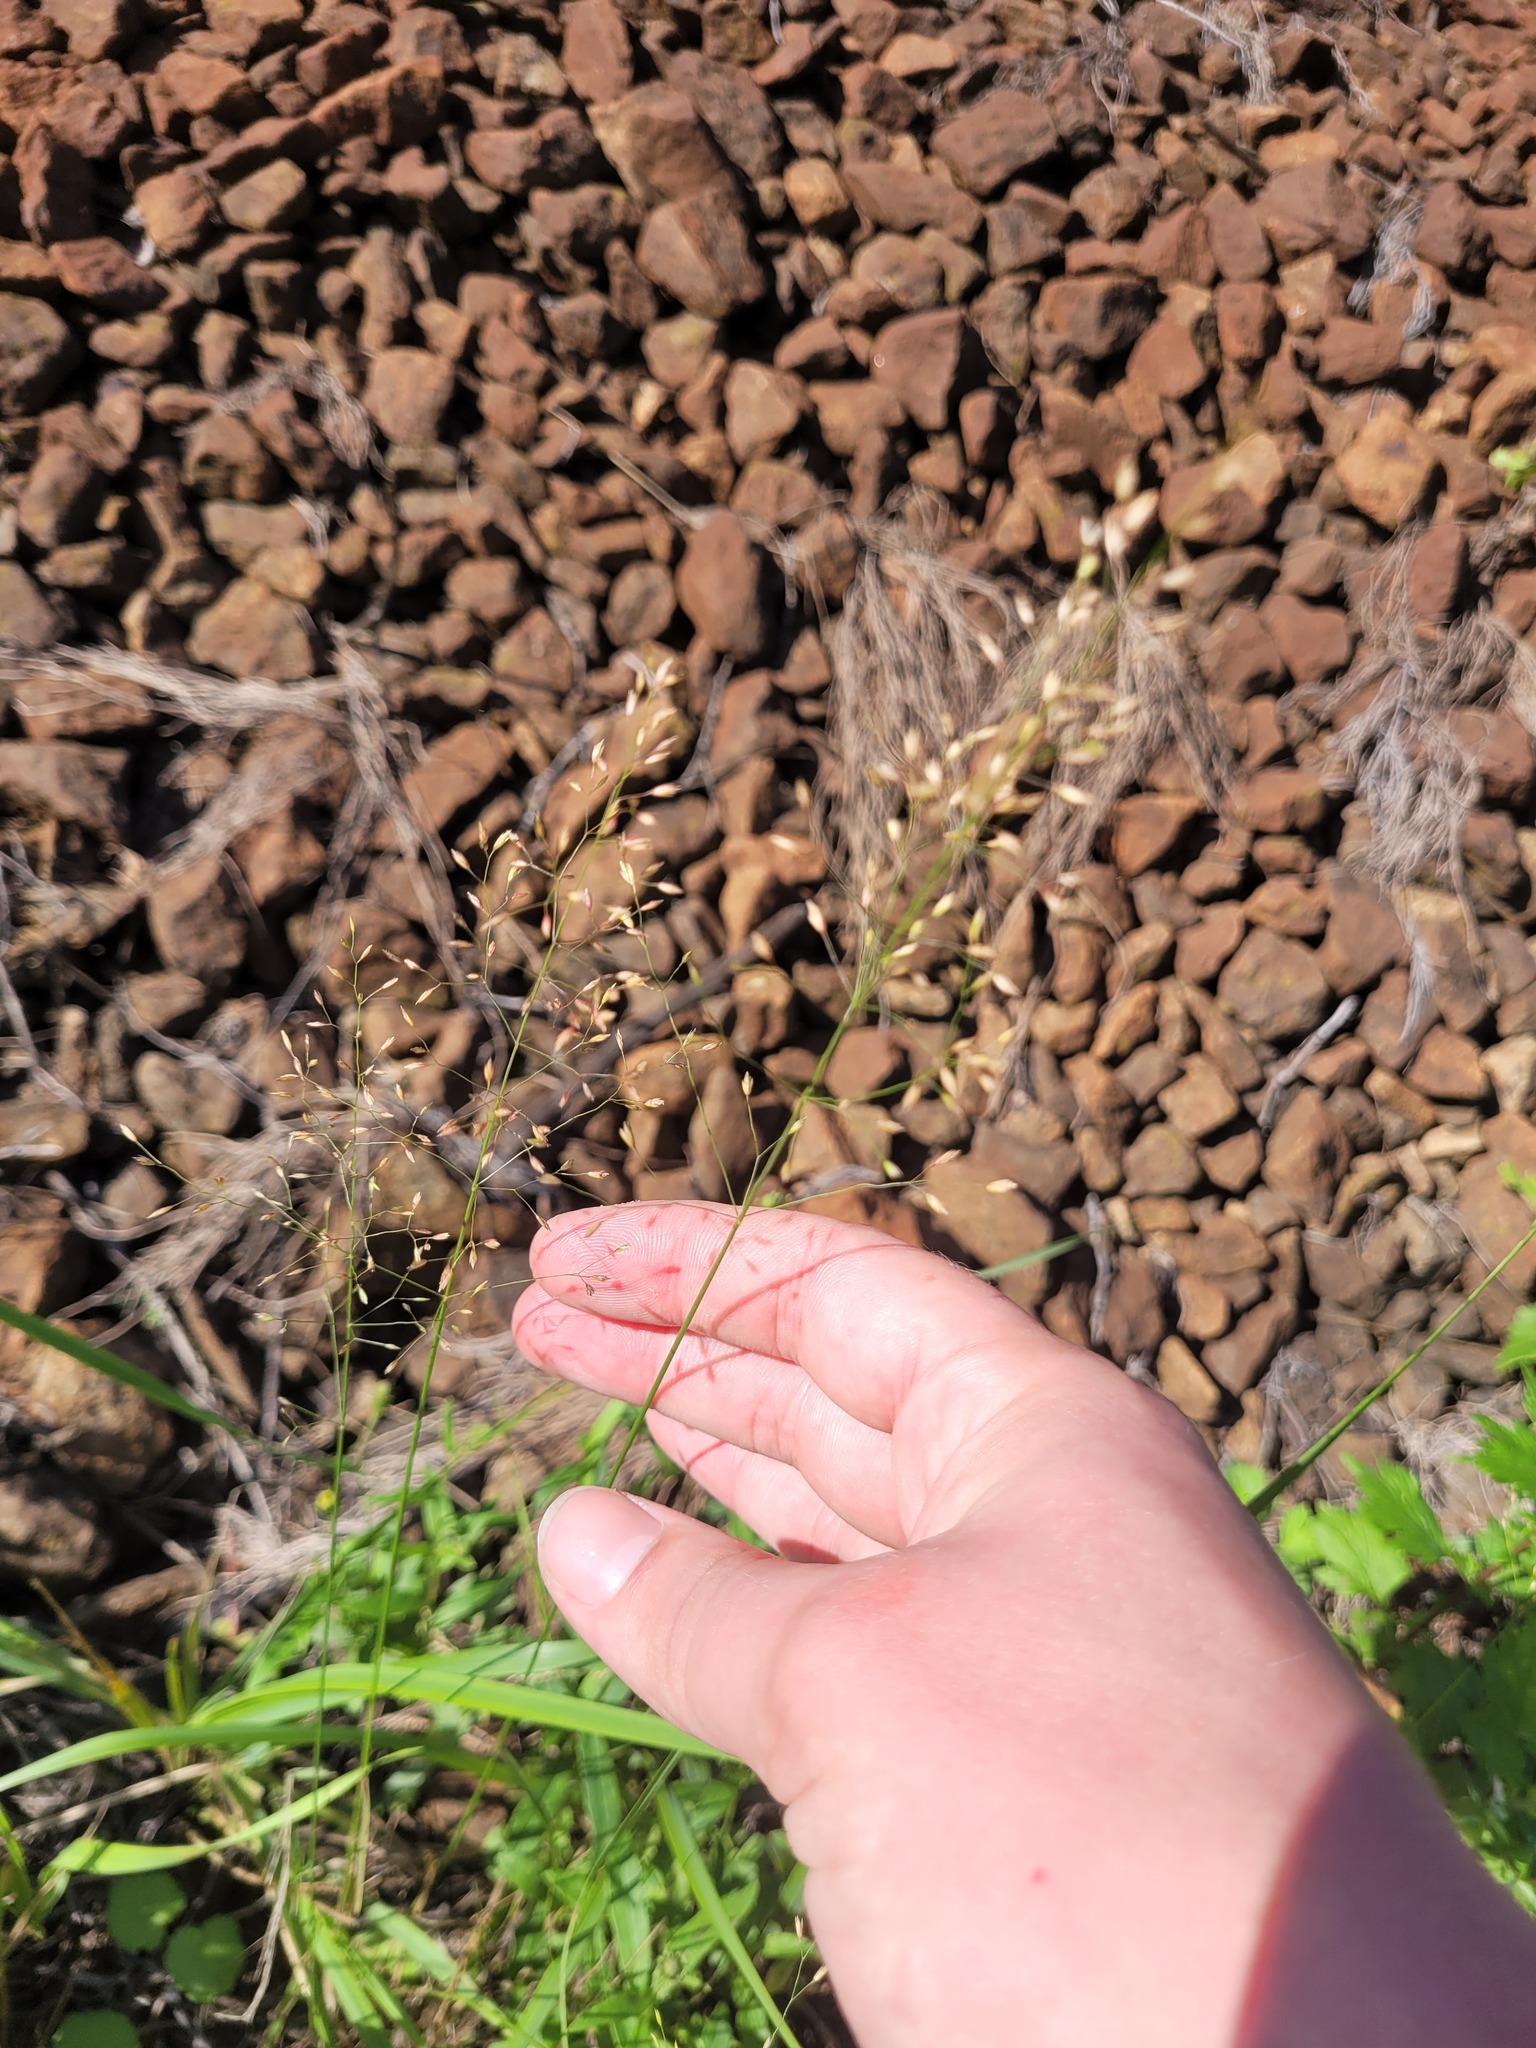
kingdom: Plantae
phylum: Tracheophyta
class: Liliopsida
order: Poales
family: Poaceae
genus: Poa
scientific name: Poa palustris
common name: Swamp meadow-grass
